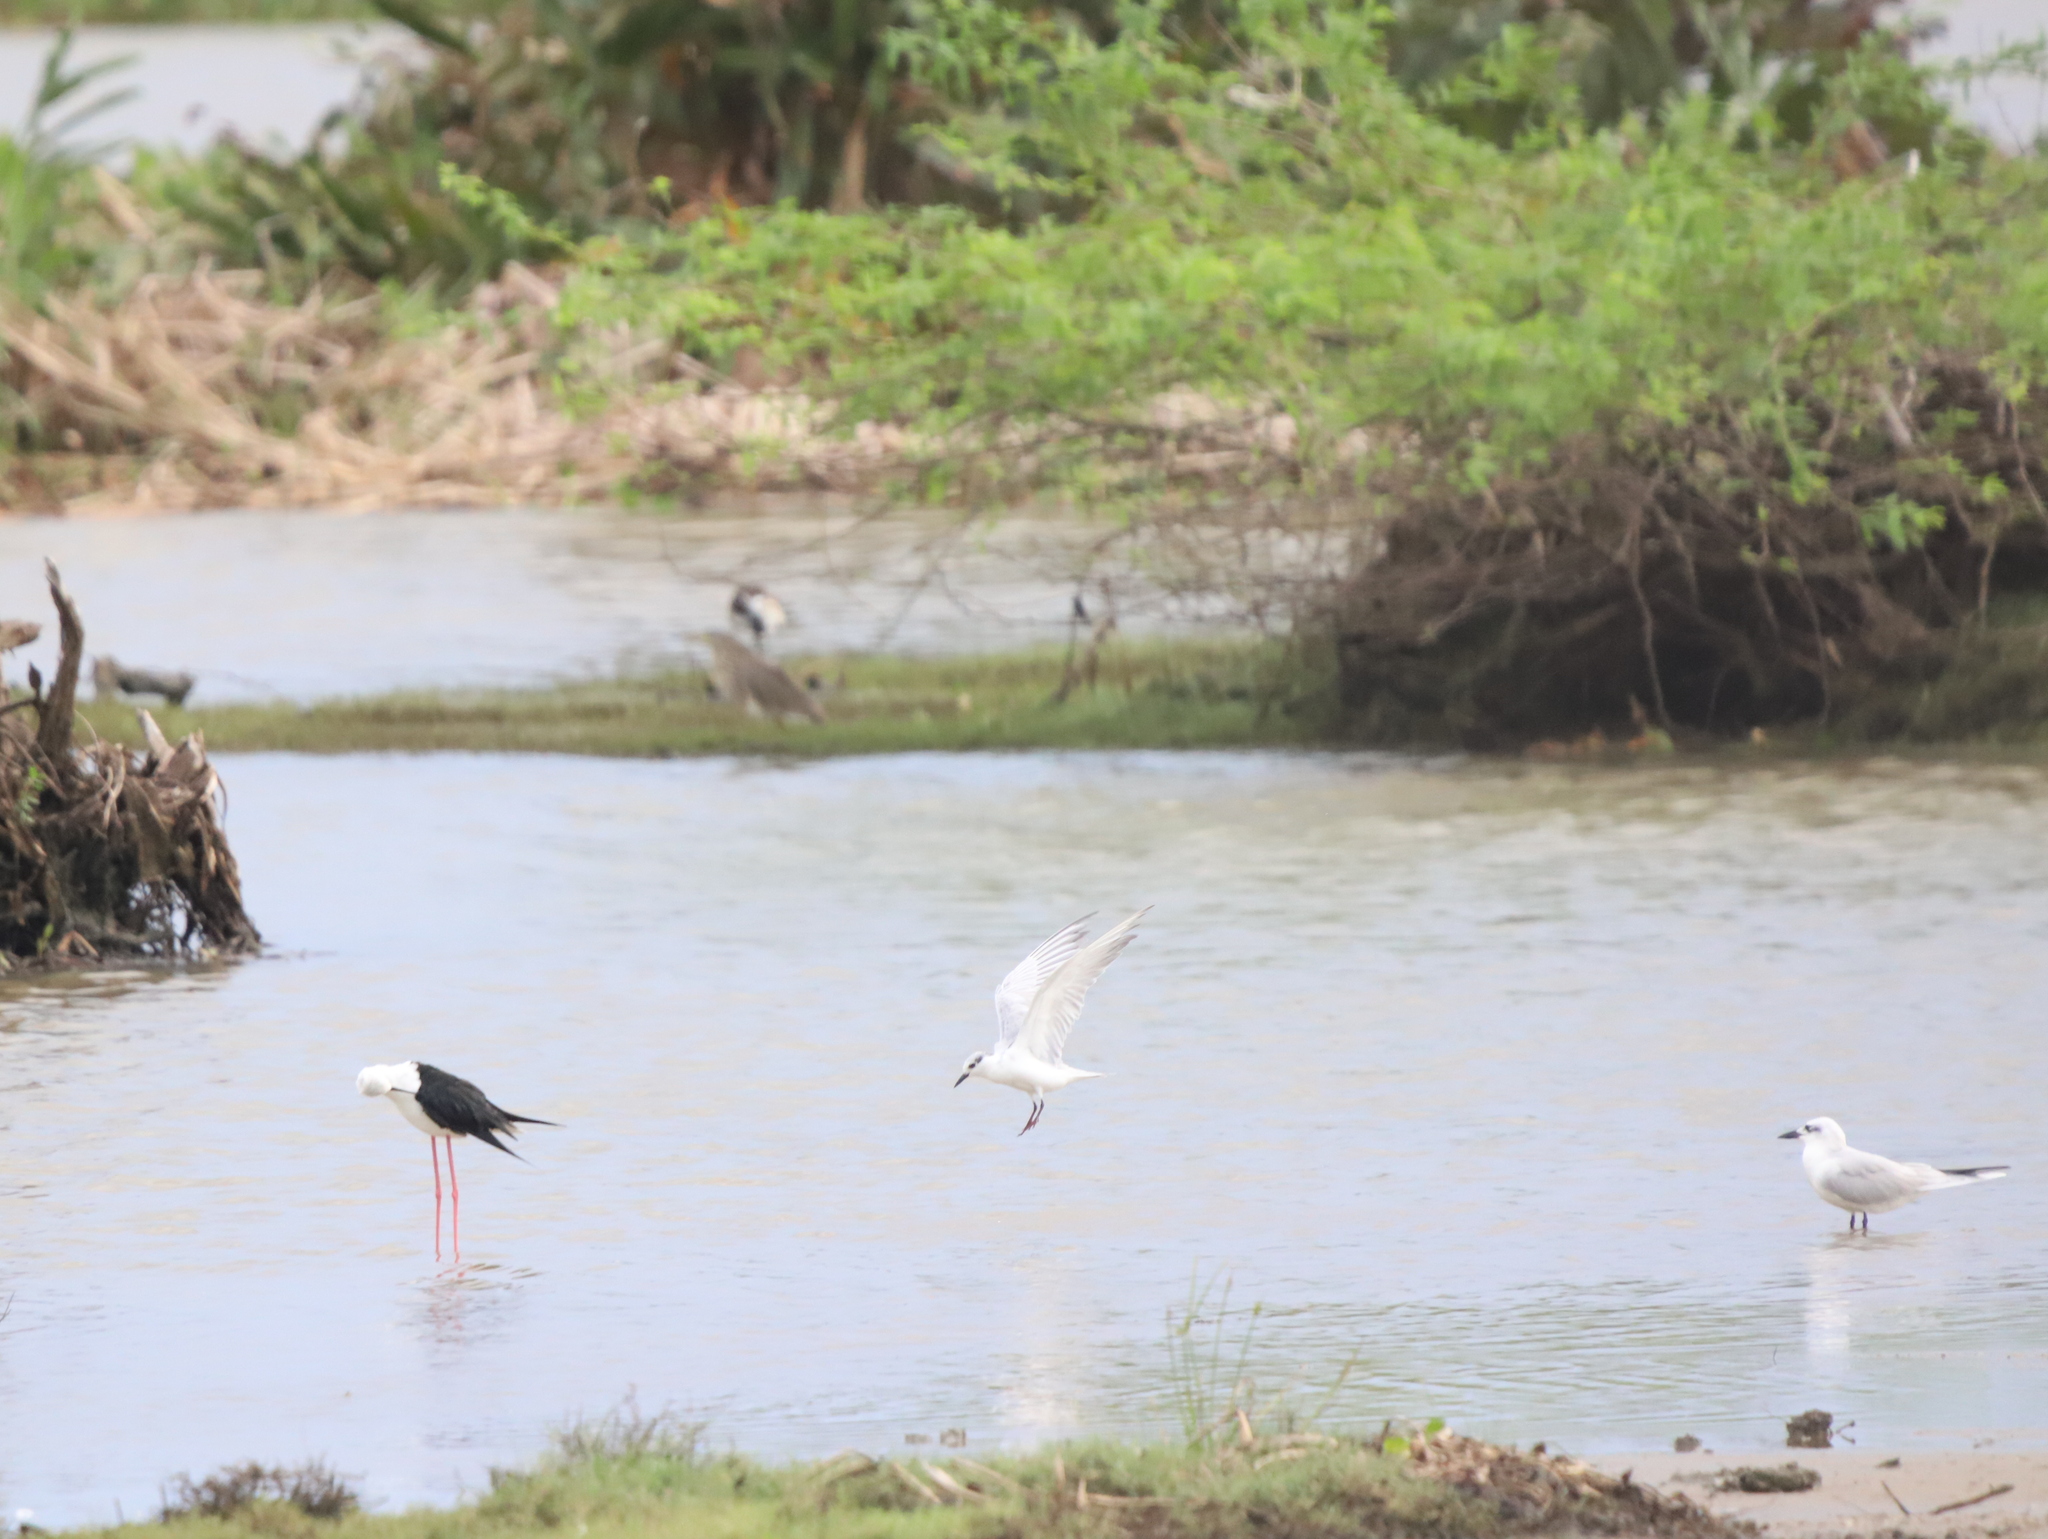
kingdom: Animalia
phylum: Chordata
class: Aves
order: Charadriiformes
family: Laridae
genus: Chlidonias
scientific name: Chlidonias hybrida
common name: Whiskered tern
